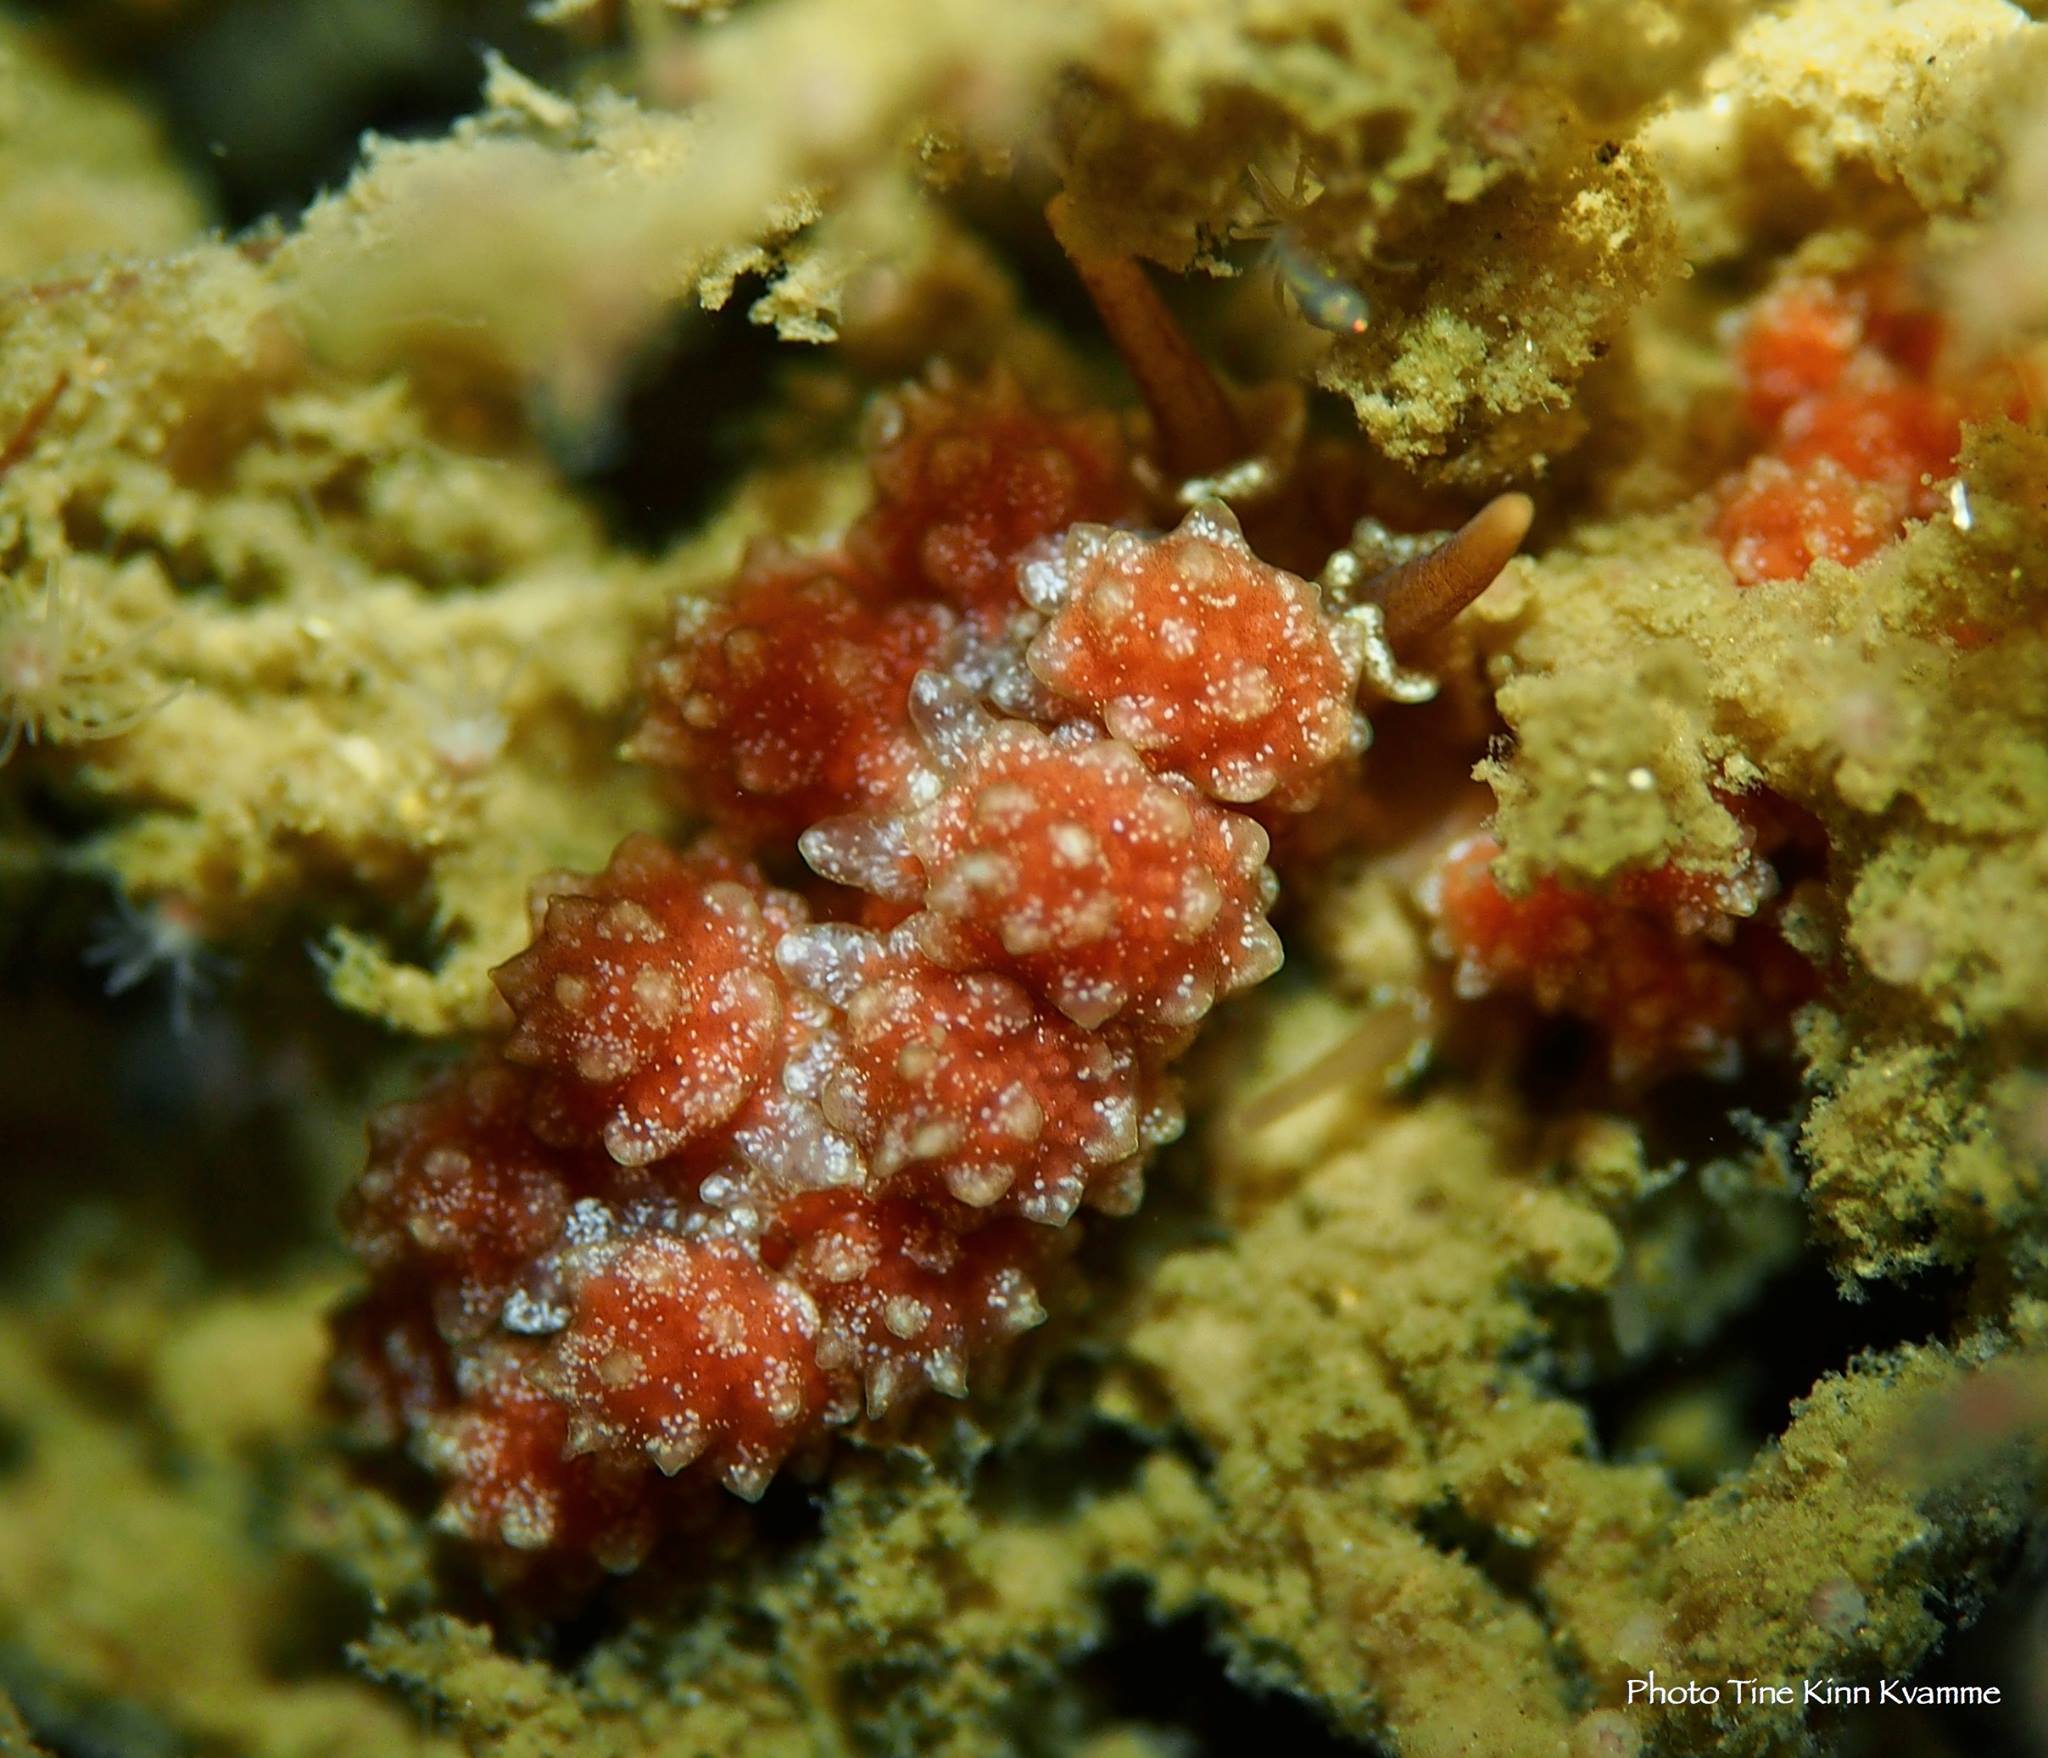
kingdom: Animalia
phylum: Mollusca
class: Gastropoda
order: Nudibranchia
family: Dotidae
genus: Doto
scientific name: Doto fragilis
